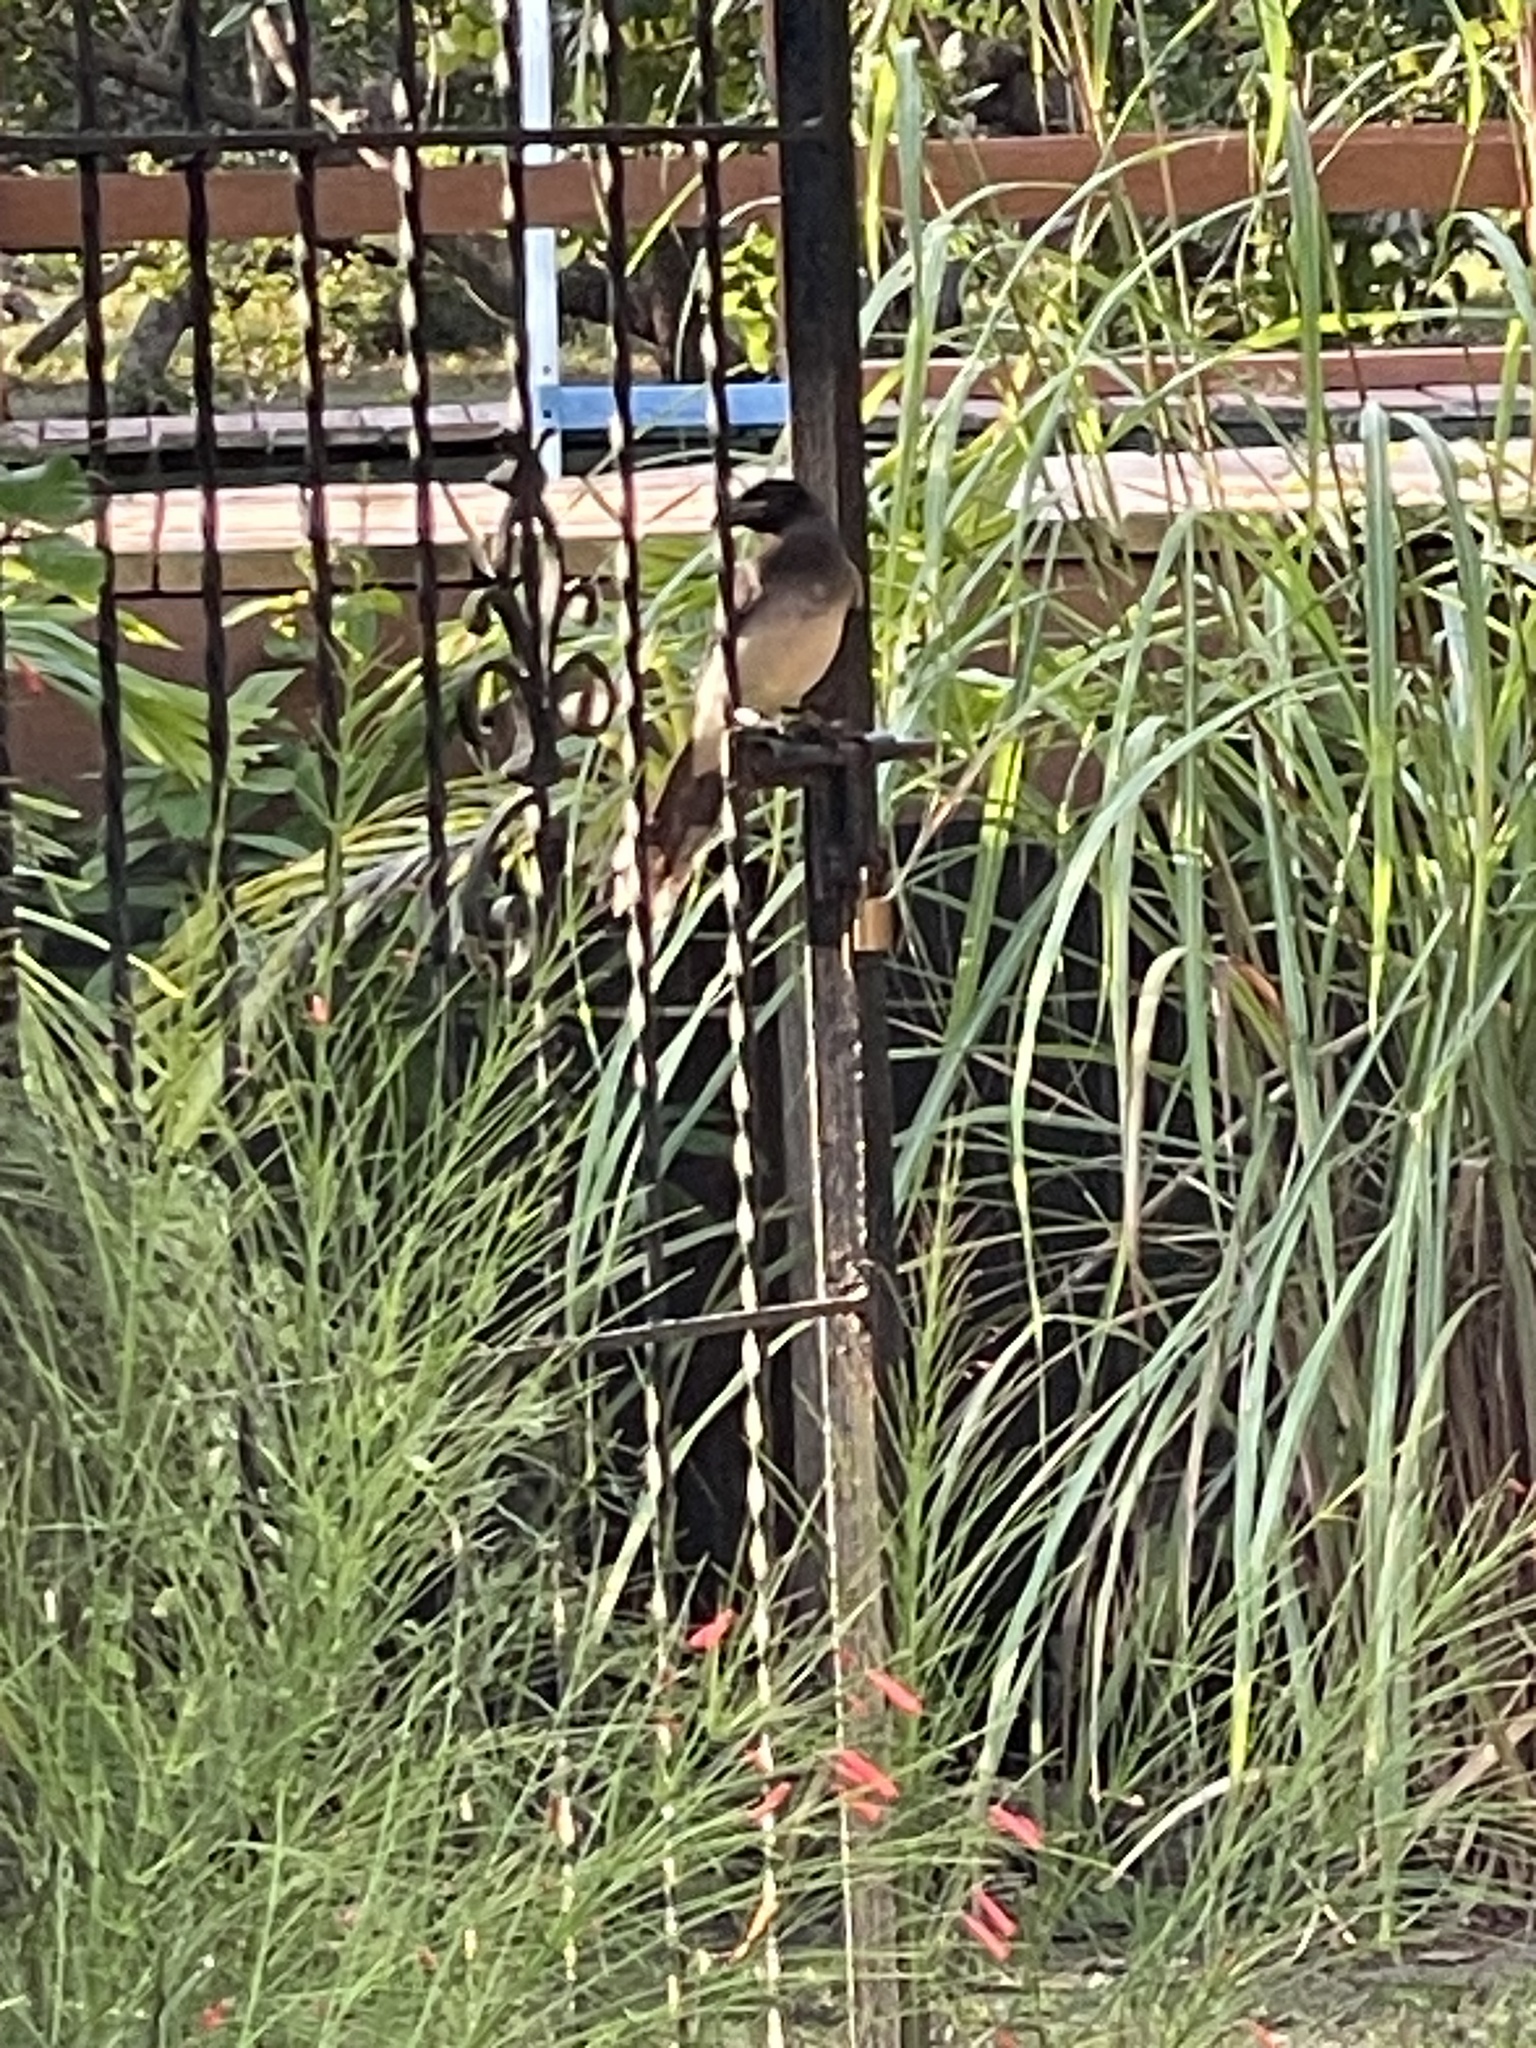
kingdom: Animalia
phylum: Chordata
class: Aves
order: Passeriformes
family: Corvidae
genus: Psilorhinus
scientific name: Psilorhinus morio
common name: Brown jay
